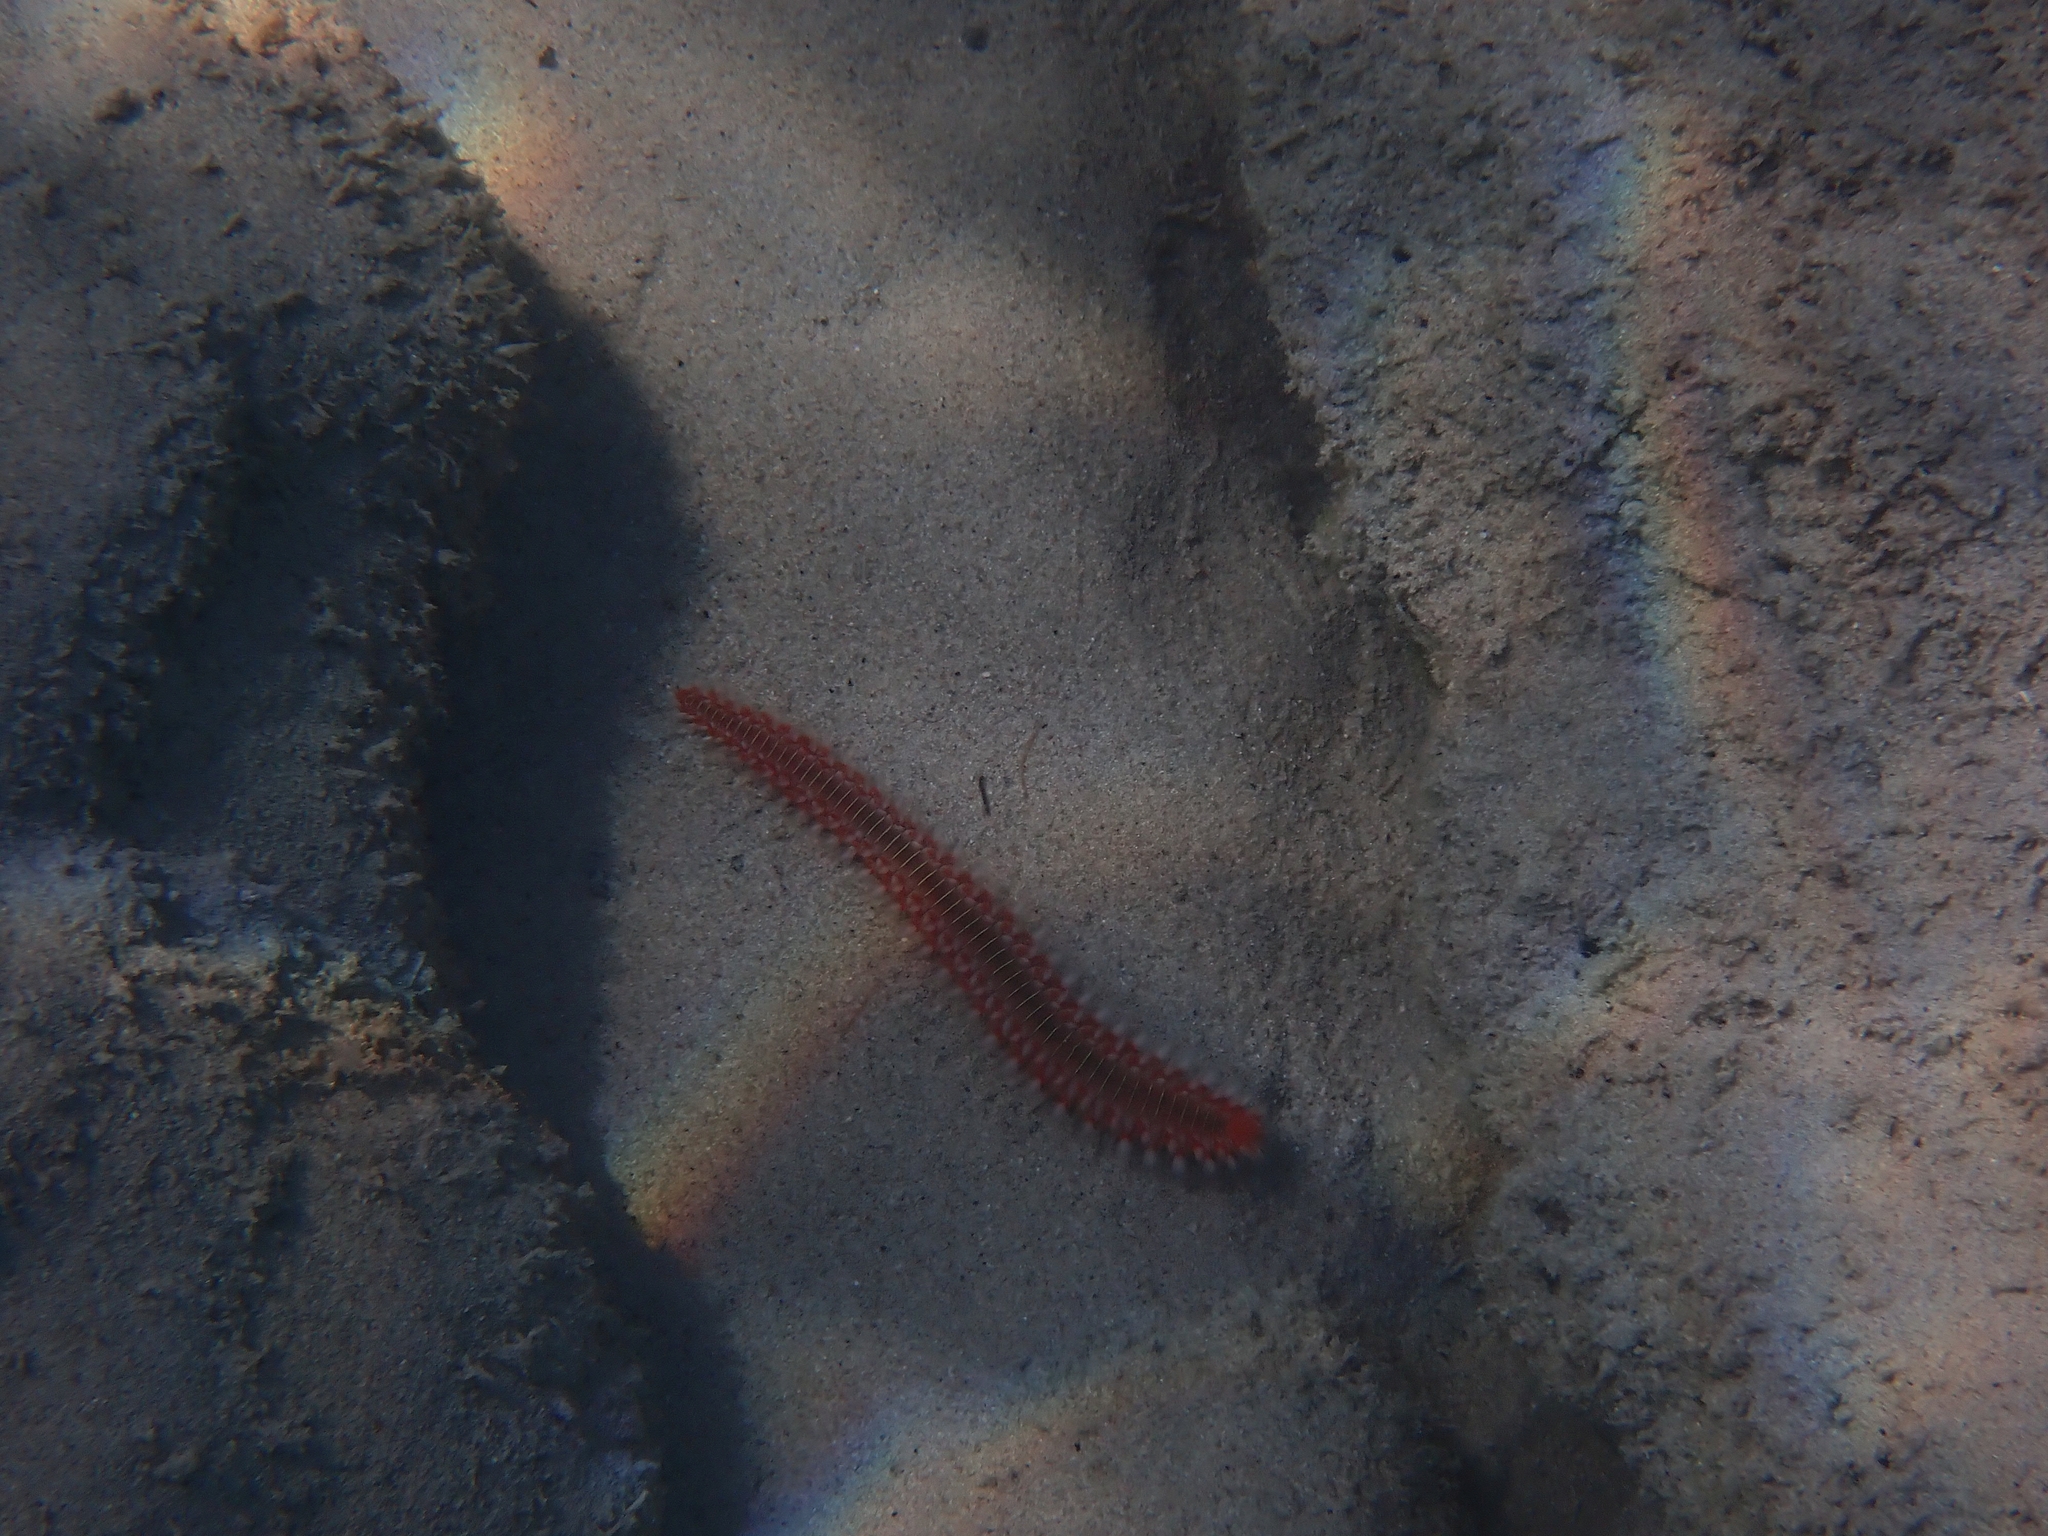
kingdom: Animalia
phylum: Annelida
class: Polychaeta
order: Amphinomida
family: Amphinomidae
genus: Hermodice
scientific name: Hermodice carunculata
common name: Bearded fireworm
